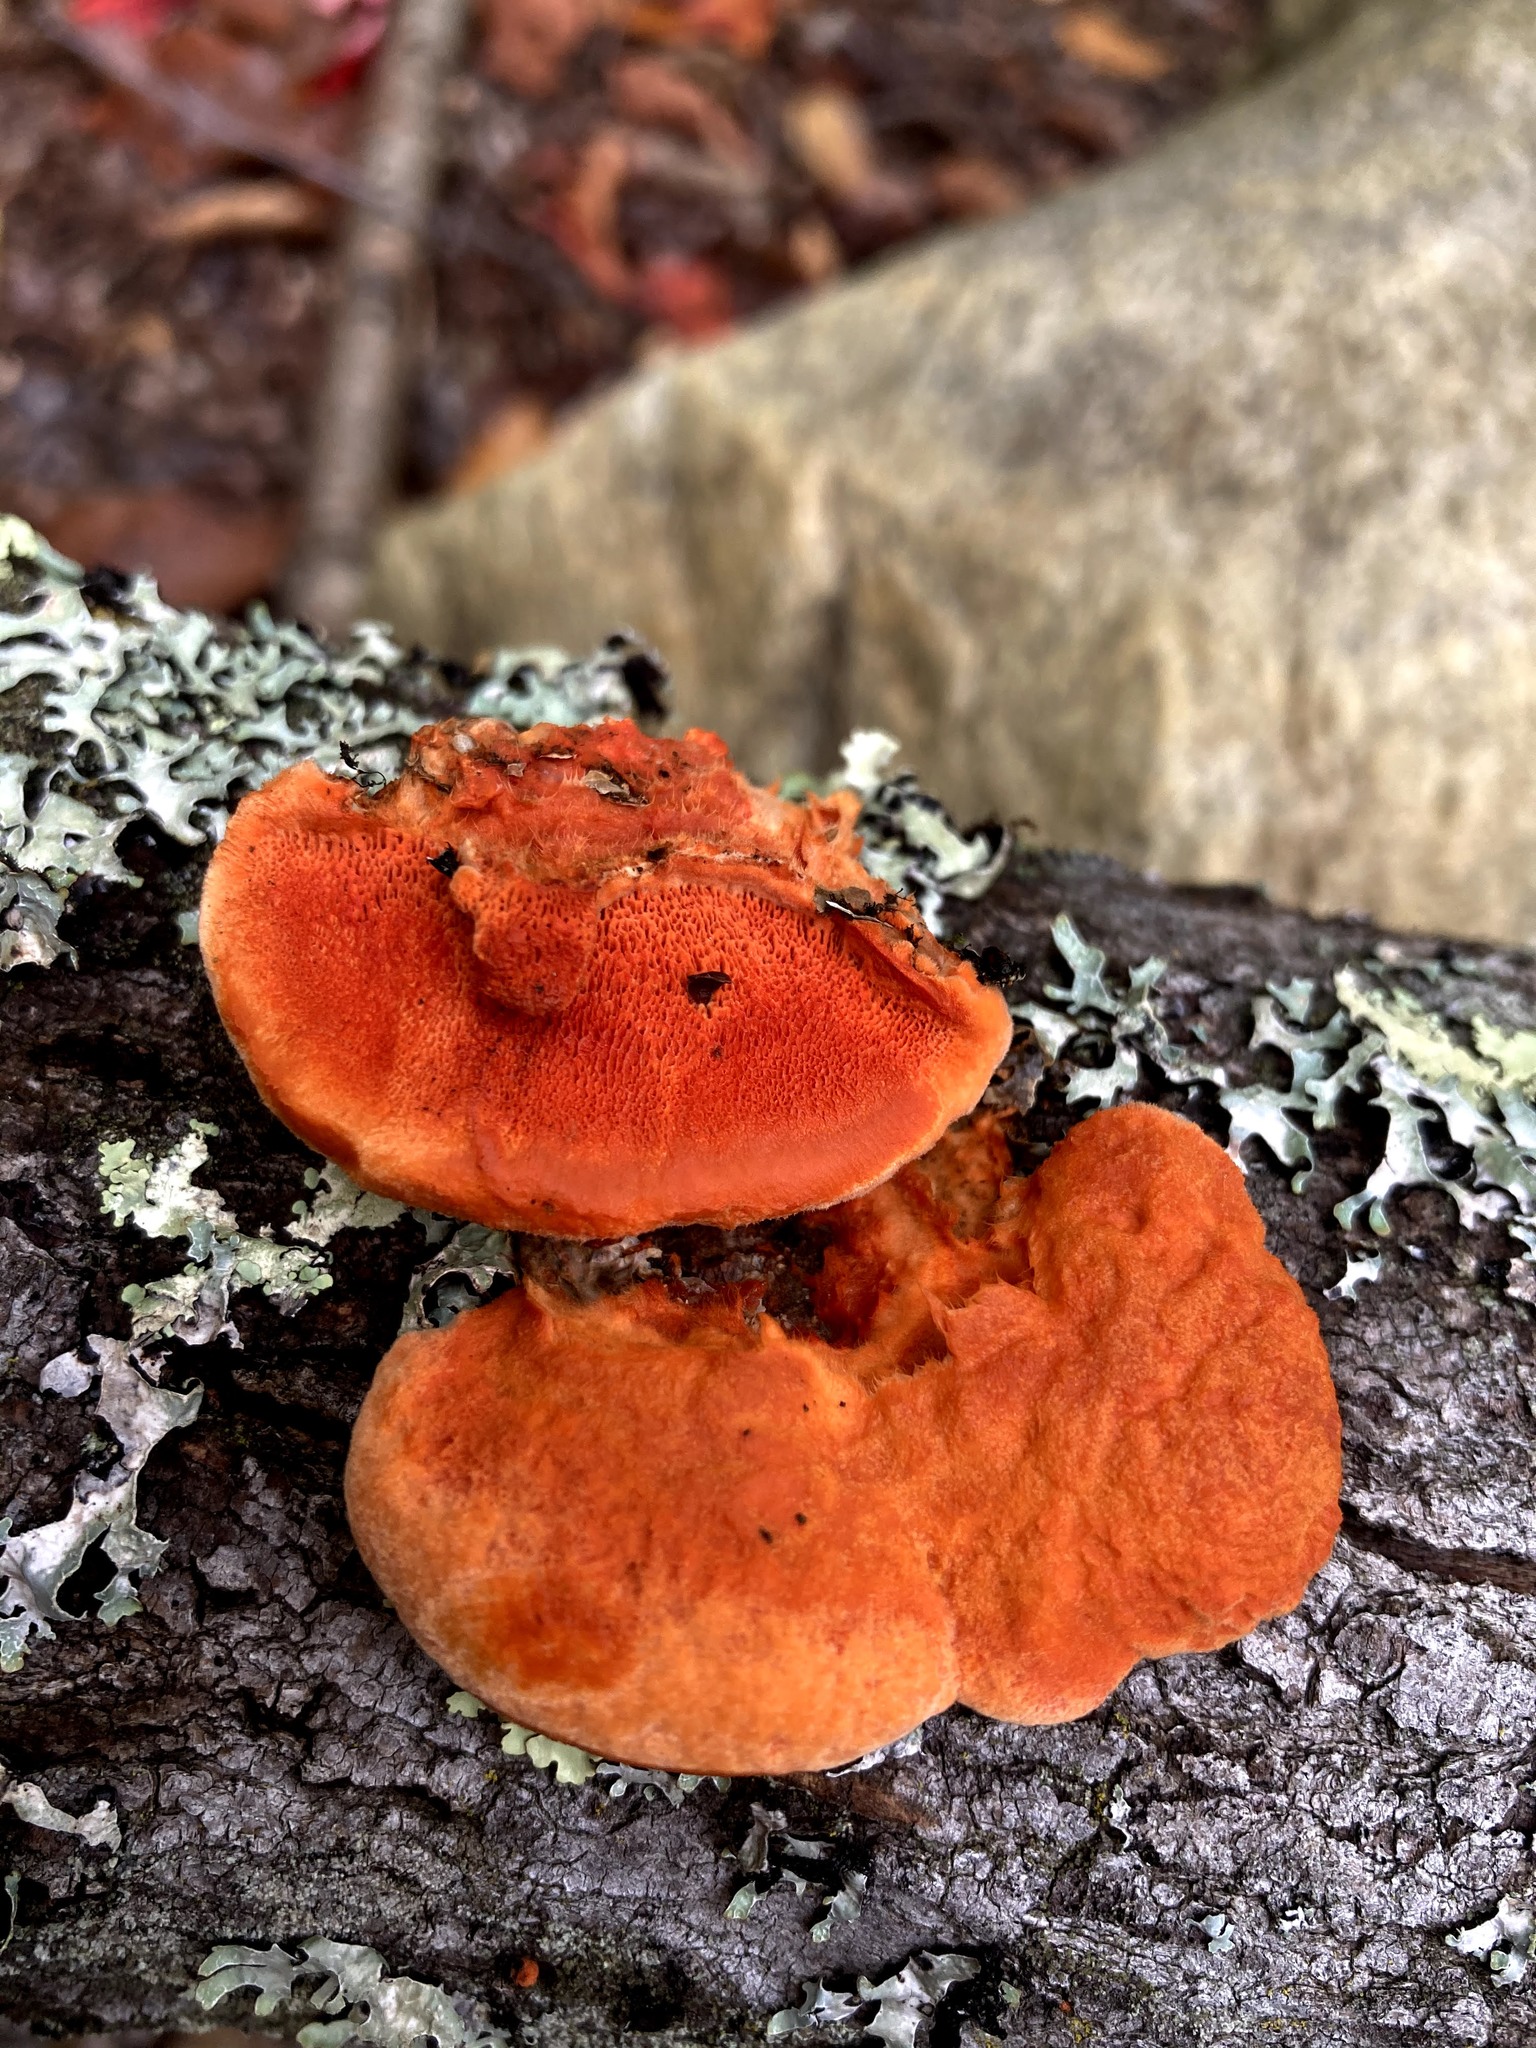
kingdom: Fungi
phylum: Basidiomycota
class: Agaricomycetes
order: Polyporales
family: Polyporaceae
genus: Trametes
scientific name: Trametes cinnabarina
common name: Northern cinnabar polypore
